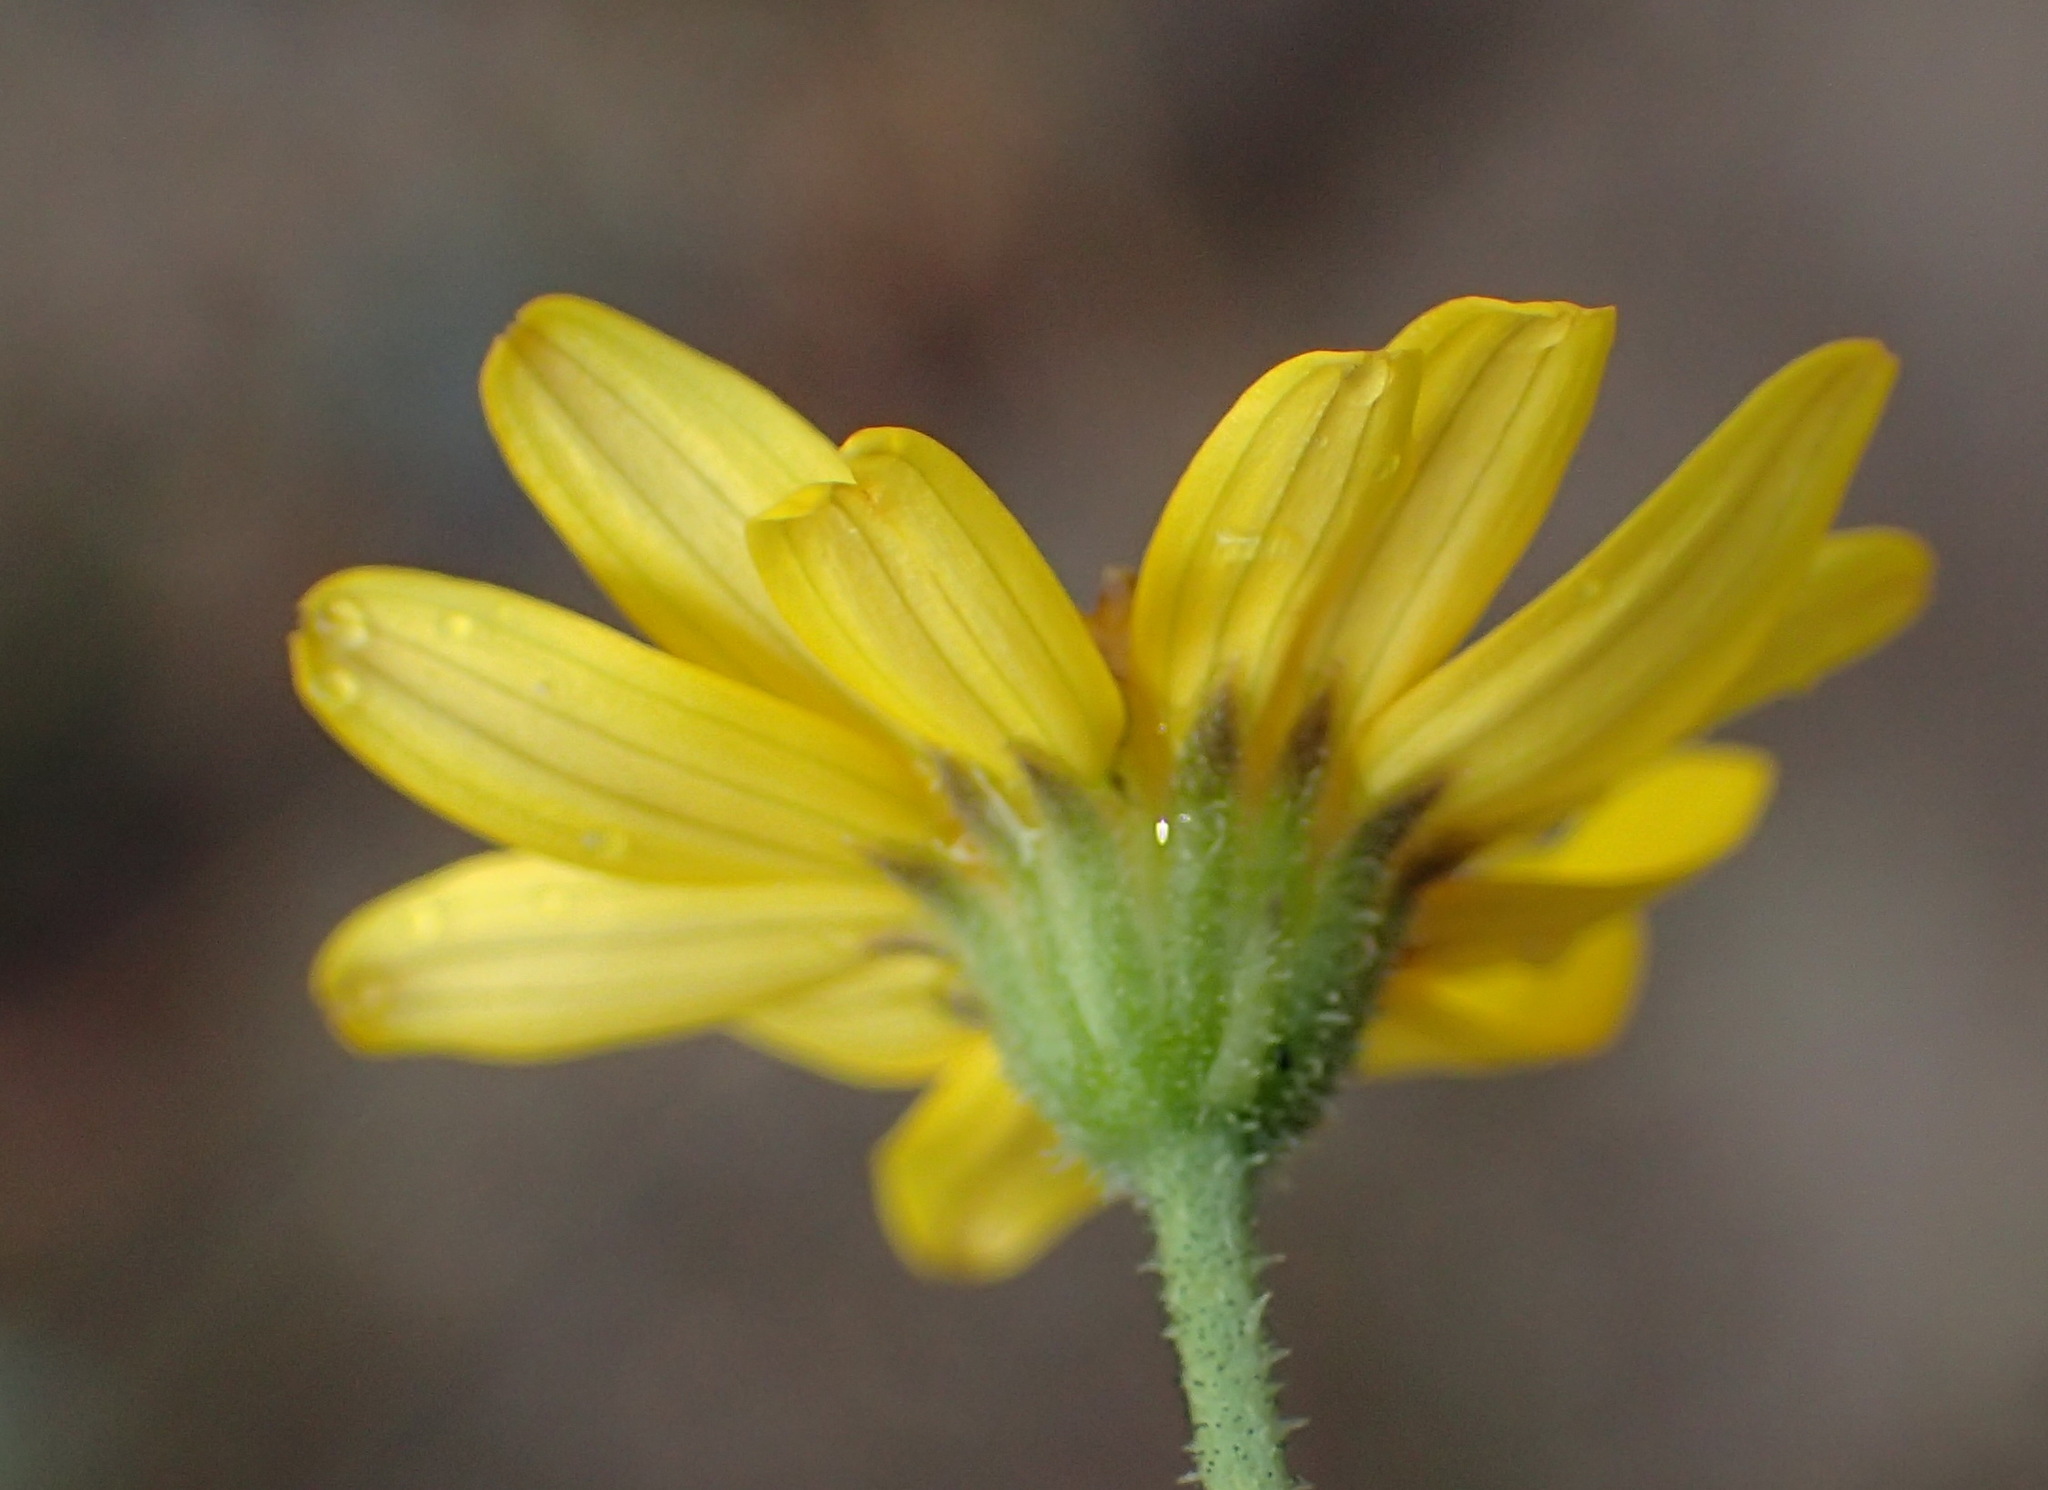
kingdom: Plantae
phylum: Tracheophyta
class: Magnoliopsida
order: Asterales
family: Asteraceae
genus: Osteospermum
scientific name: Osteospermum bolusii
